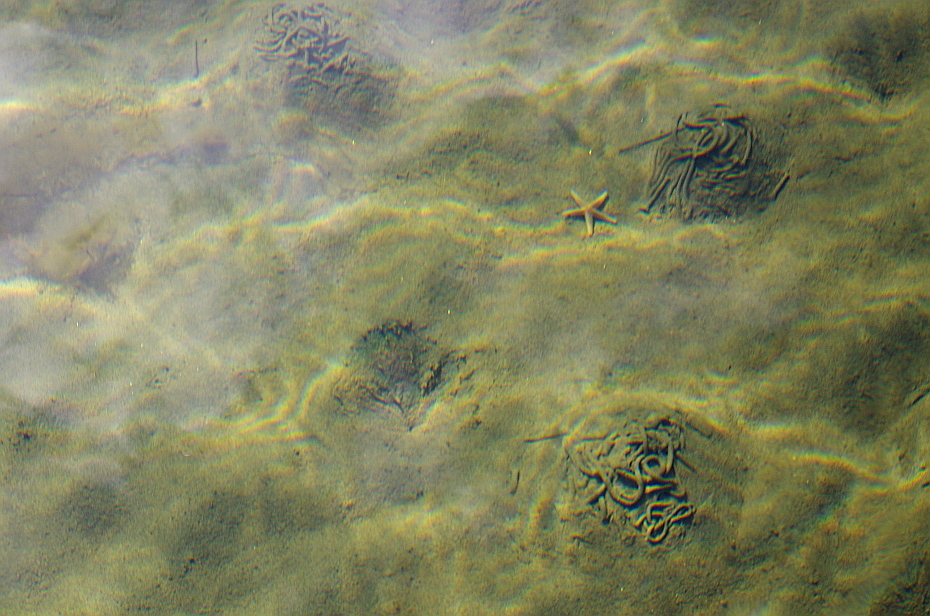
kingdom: Animalia
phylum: Annelida
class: Polychaeta
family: Arenicolidae
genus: Arenicola
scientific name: Arenicola marina
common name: Blow lugworm
